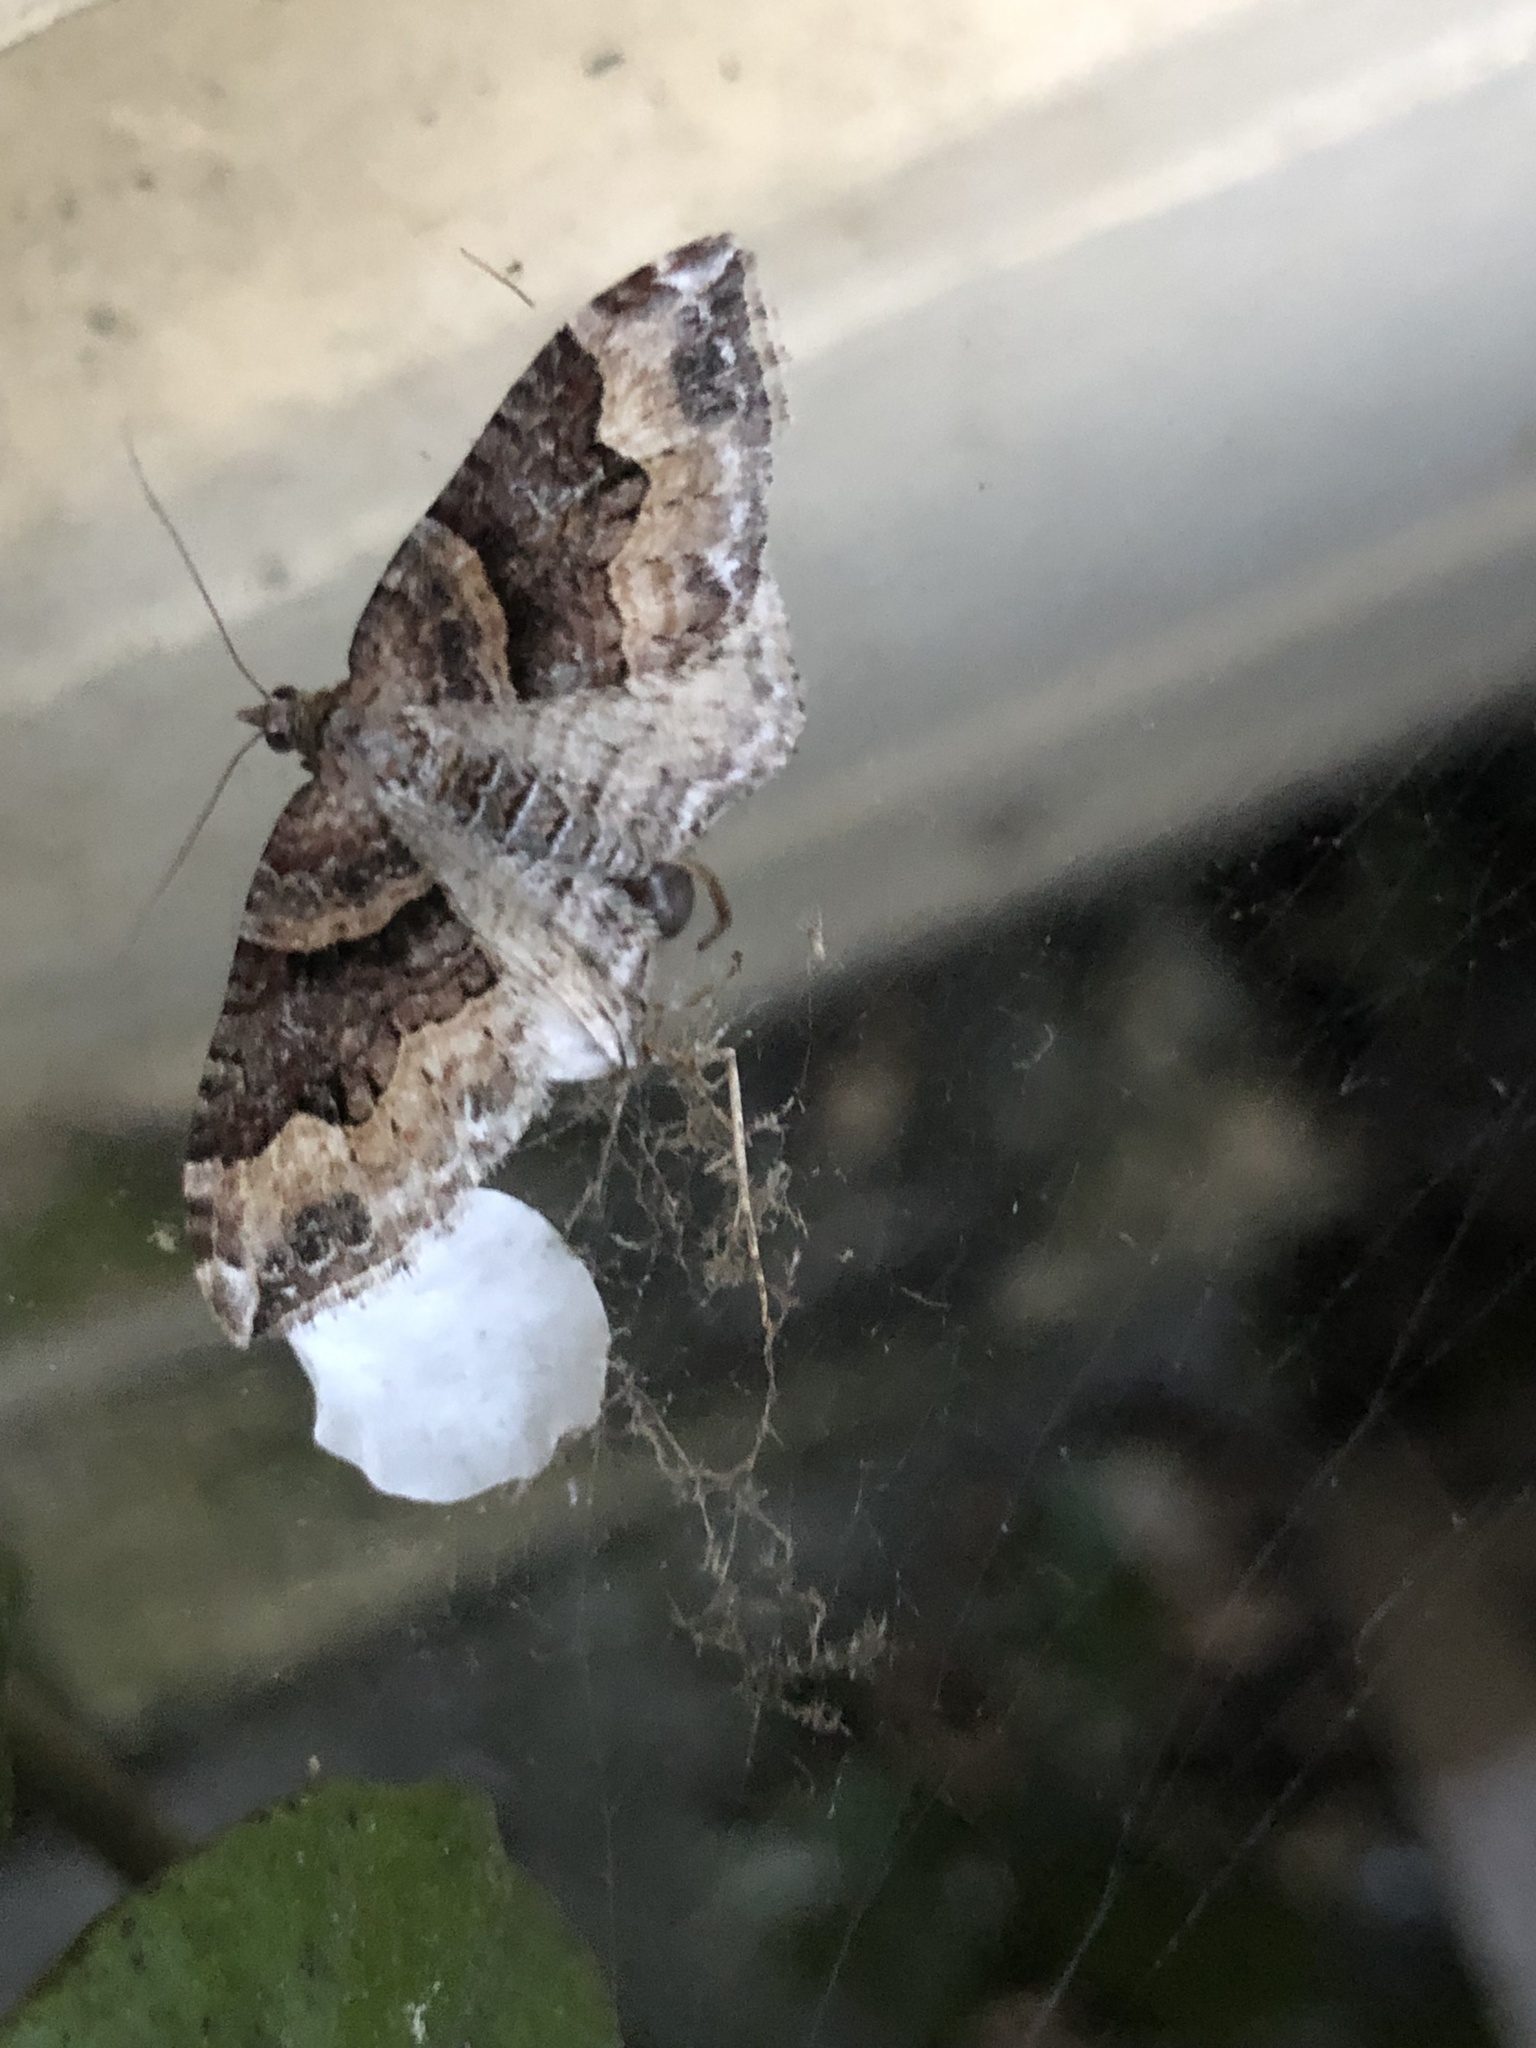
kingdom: Animalia
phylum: Arthropoda
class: Insecta
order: Lepidoptera
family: Geometridae
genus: Xanthorhoe
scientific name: Xanthorhoe defensaria
